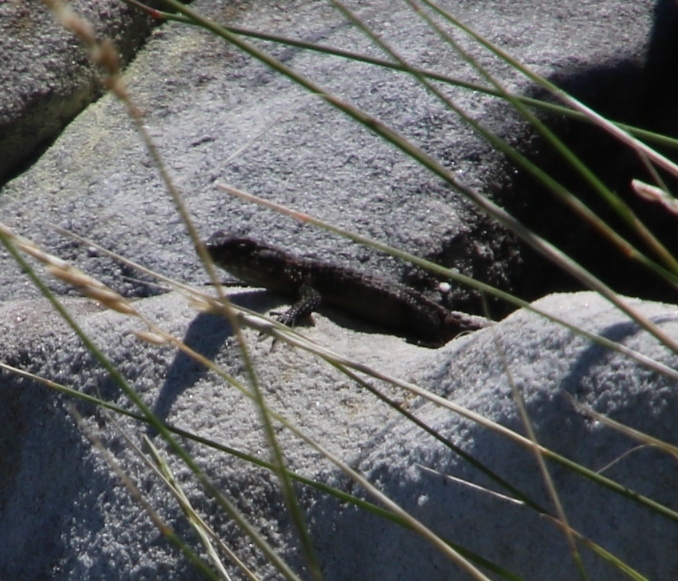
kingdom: Animalia
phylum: Chordata
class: Squamata
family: Cordylidae
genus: Cordylus
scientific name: Cordylus niger
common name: Black girdled lizard
